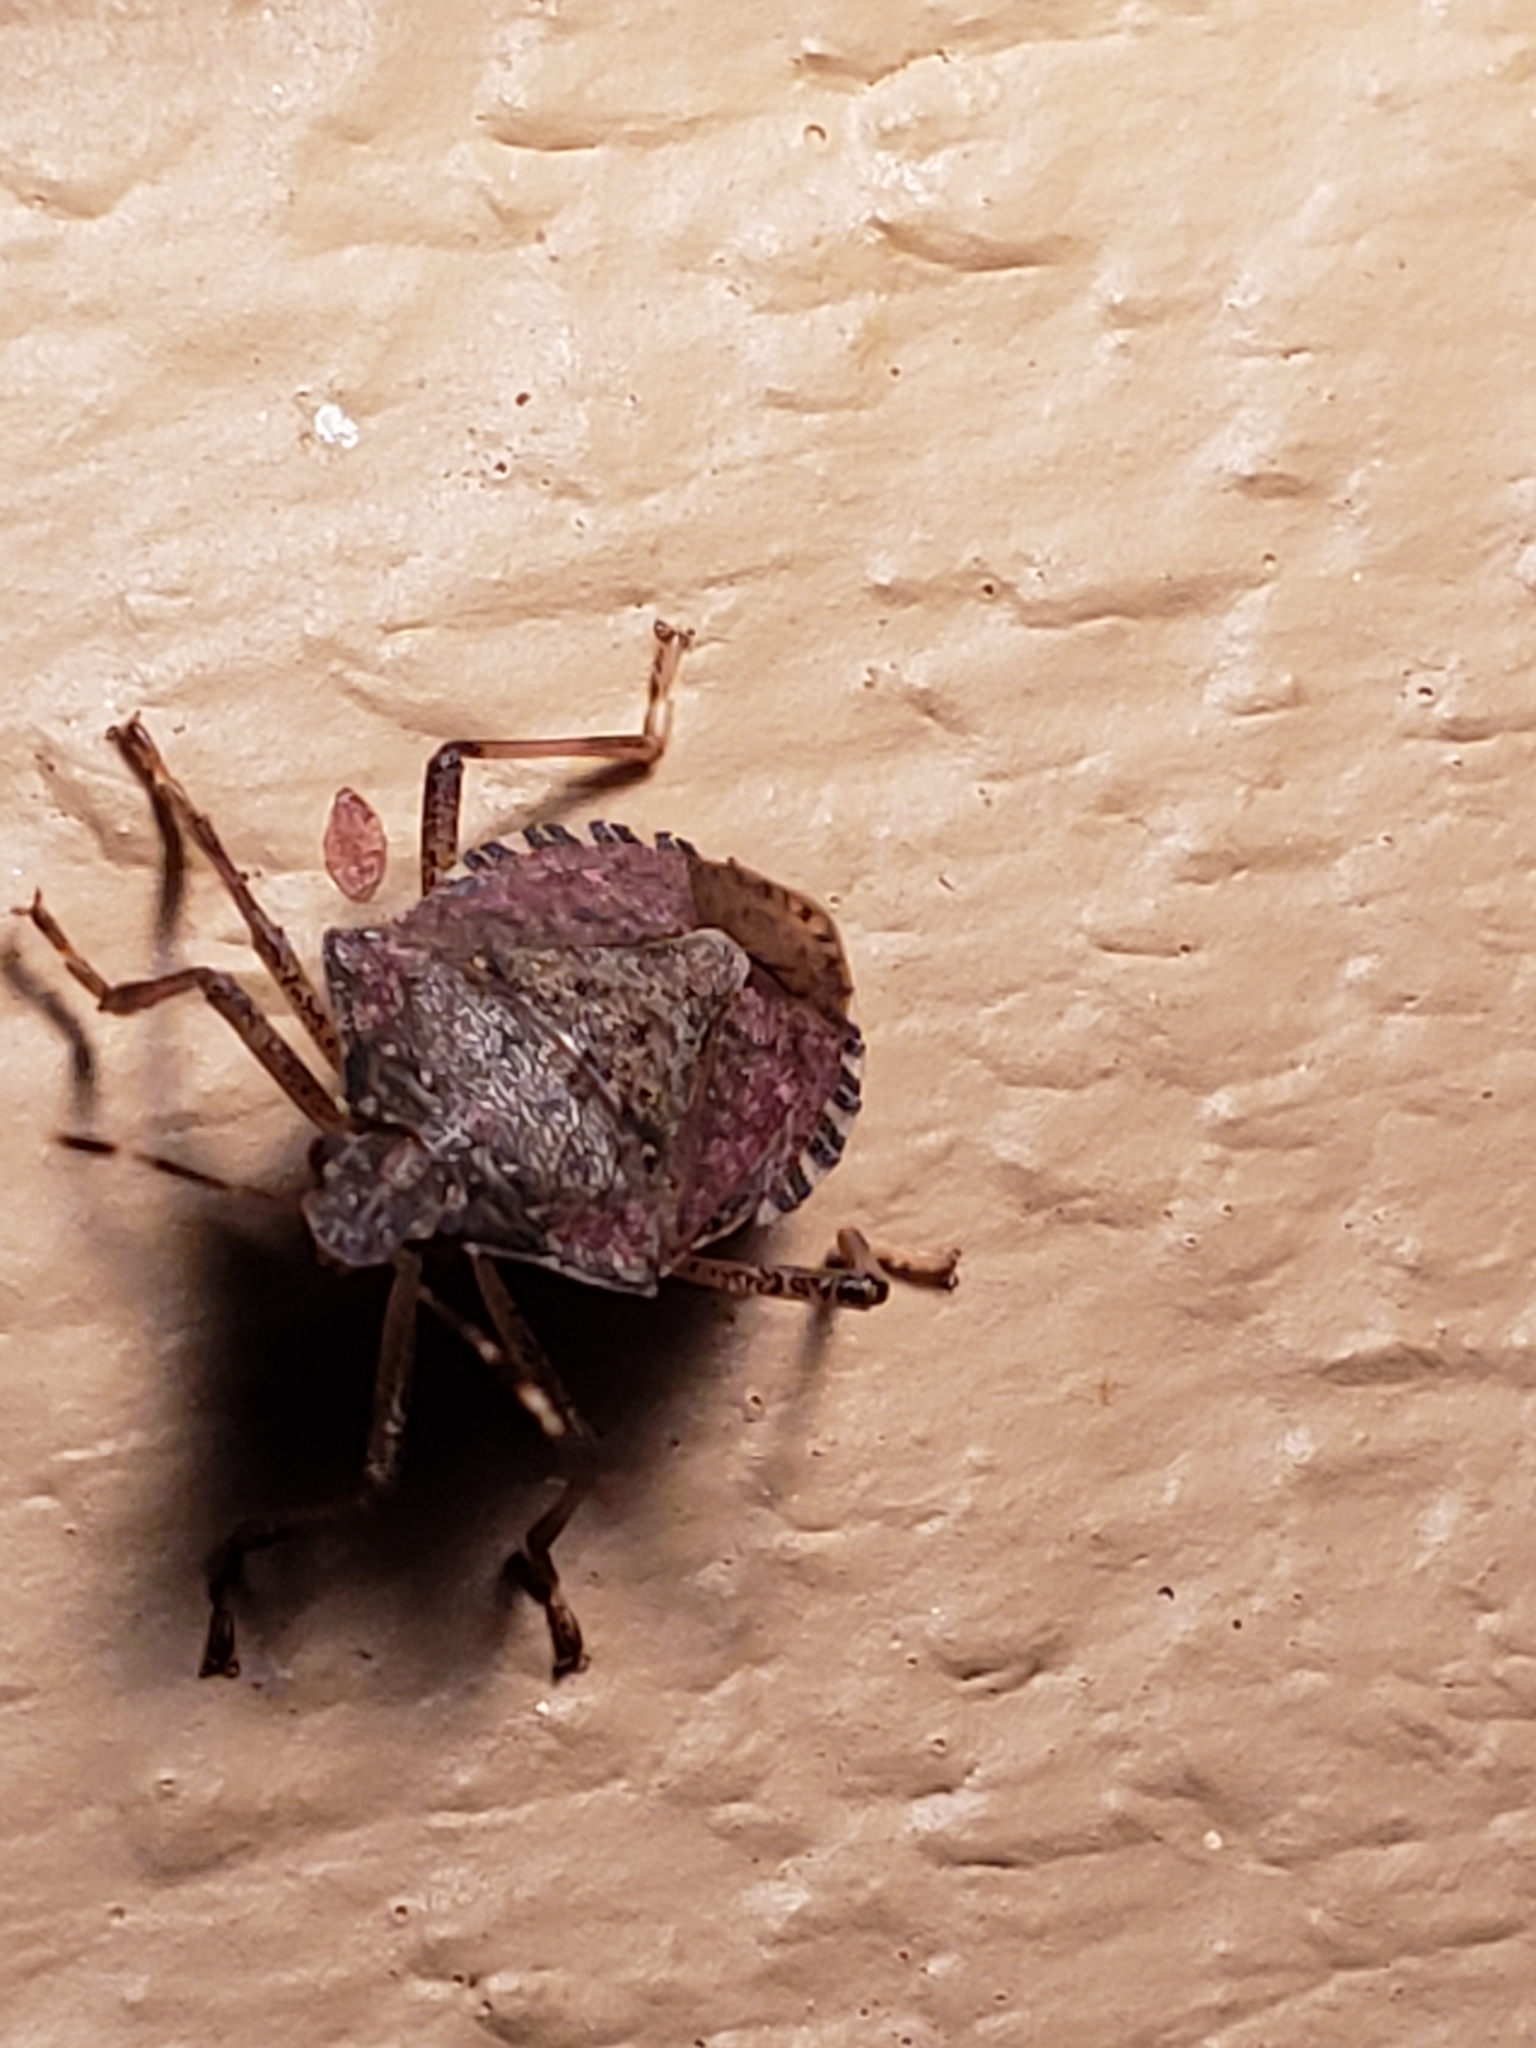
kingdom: Animalia
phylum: Arthropoda
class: Insecta
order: Hemiptera
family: Pentatomidae
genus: Halyomorpha
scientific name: Halyomorpha halys
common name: Brown marmorated stink bug
